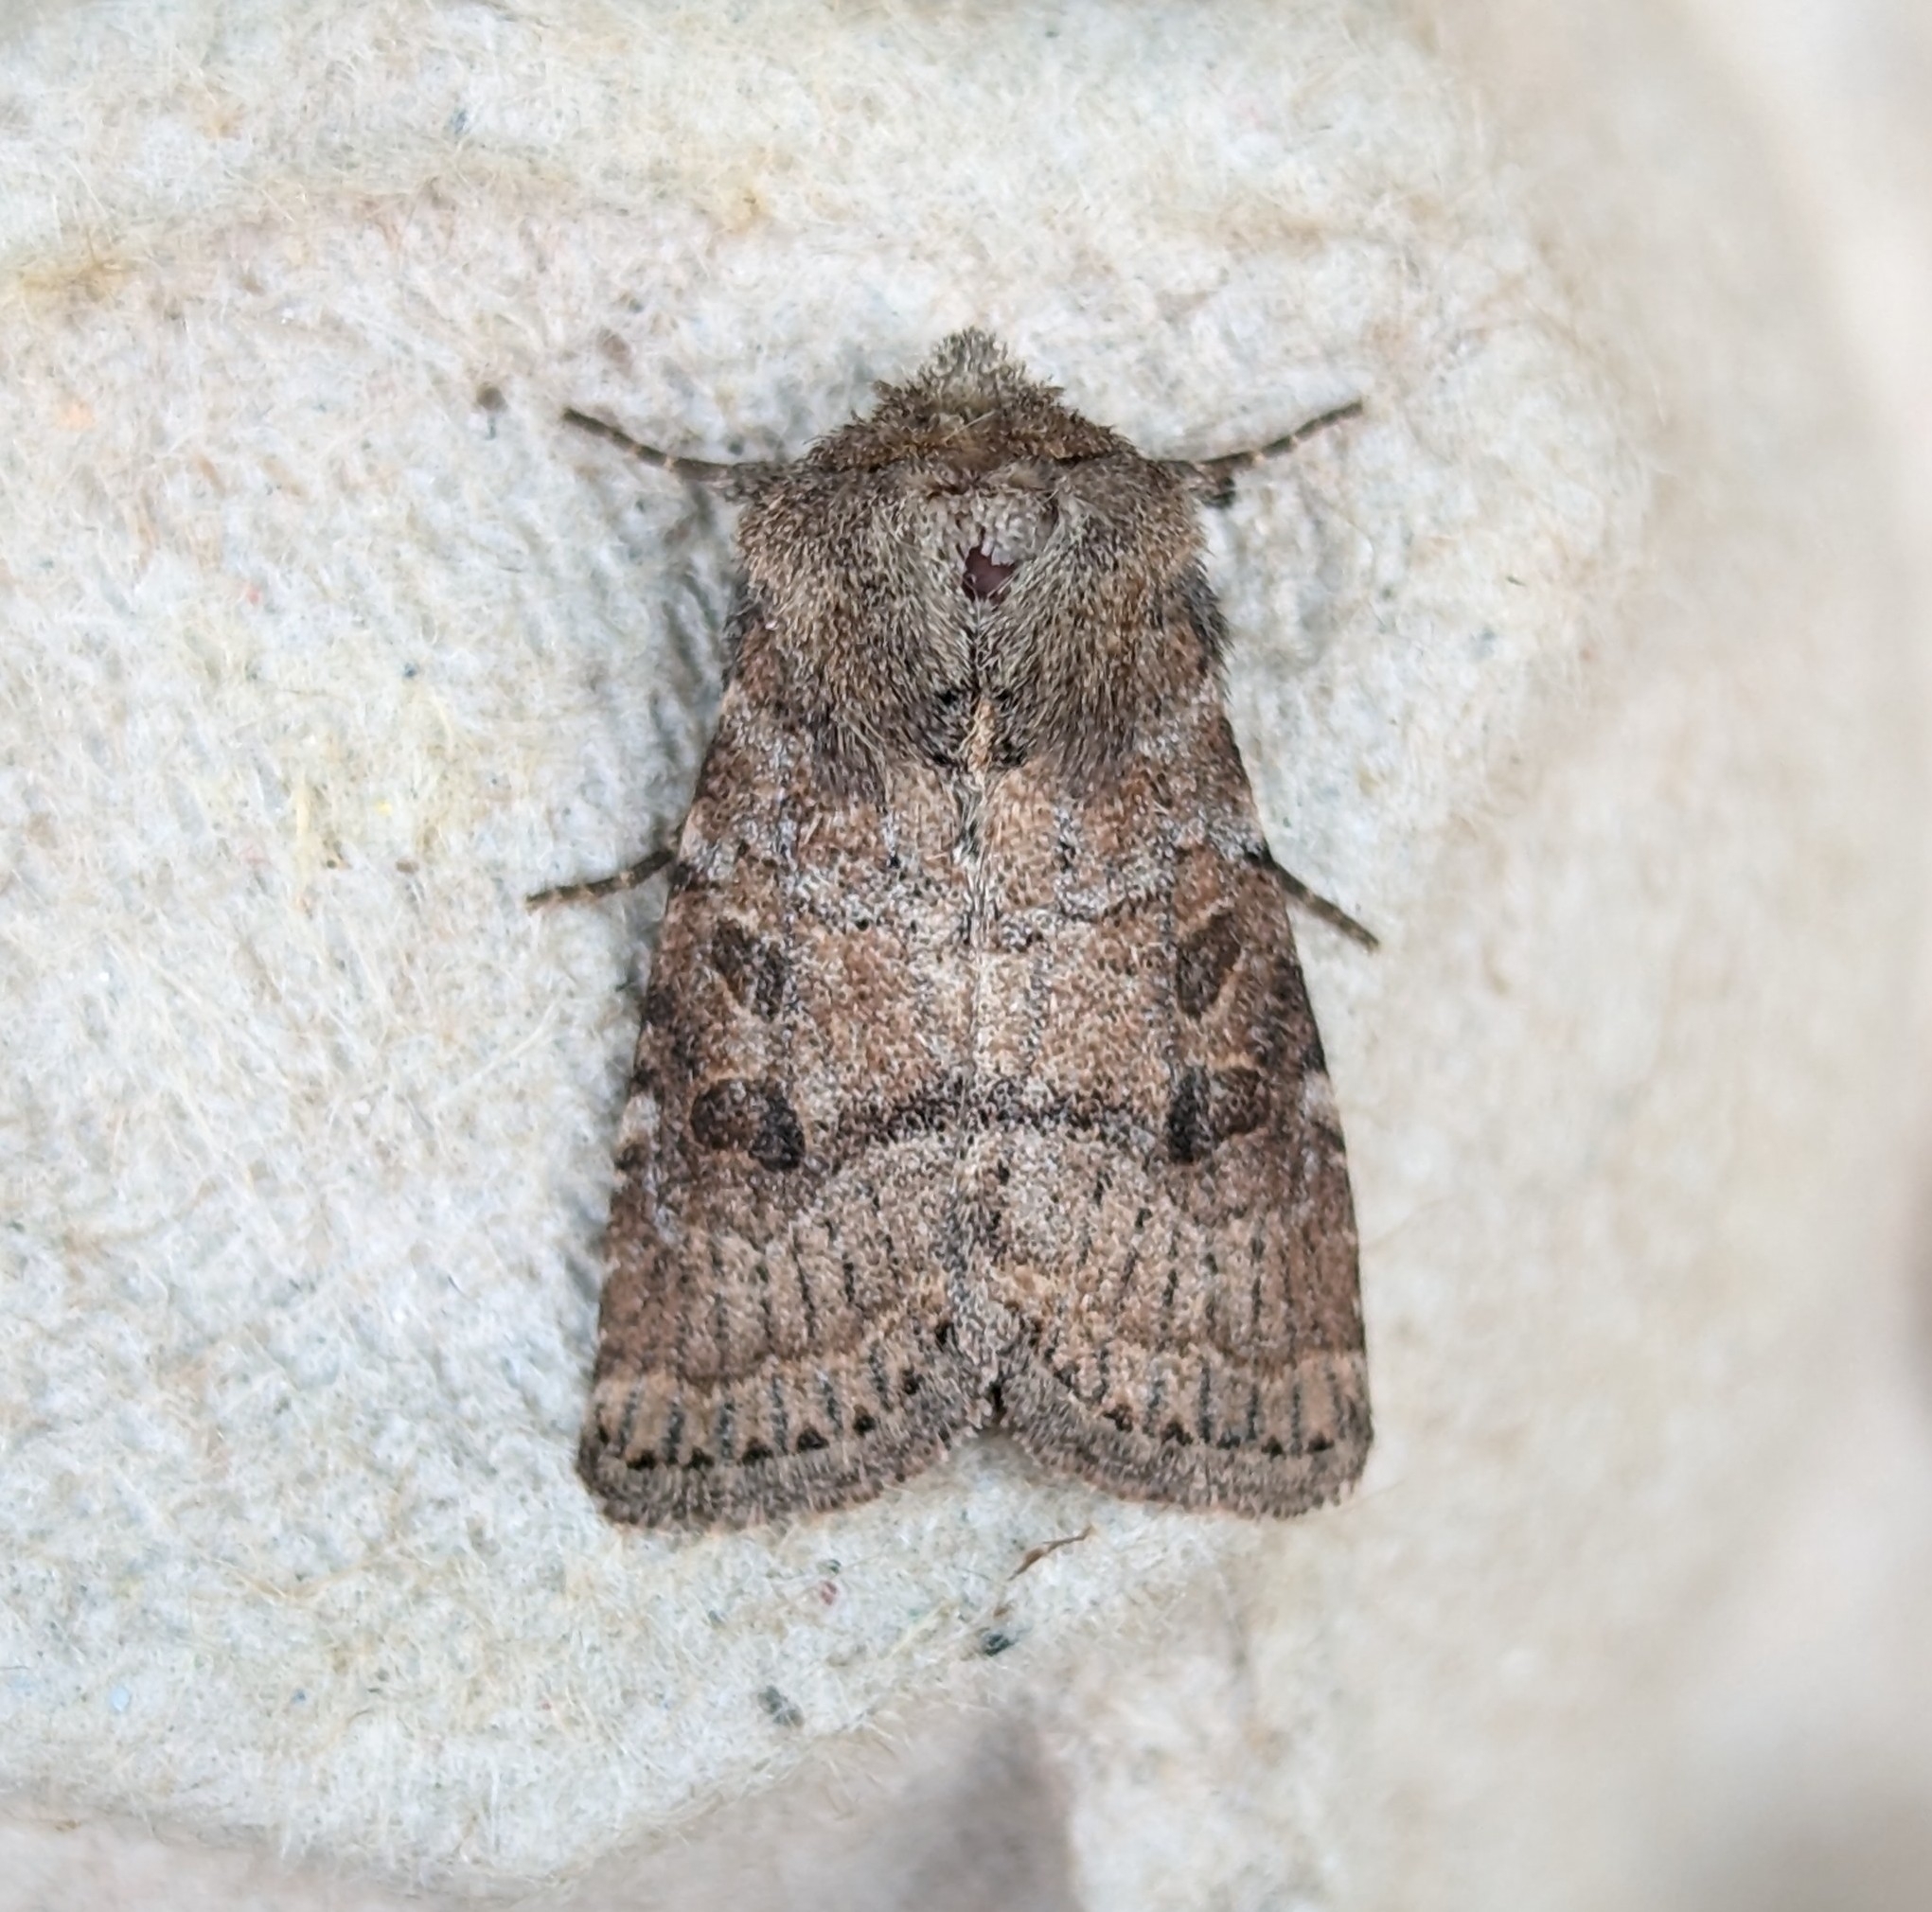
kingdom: Animalia
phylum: Arthropoda
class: Insecta
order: Lepidoptera
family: Noctuidae
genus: Trichopolia
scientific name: Trichopolia
